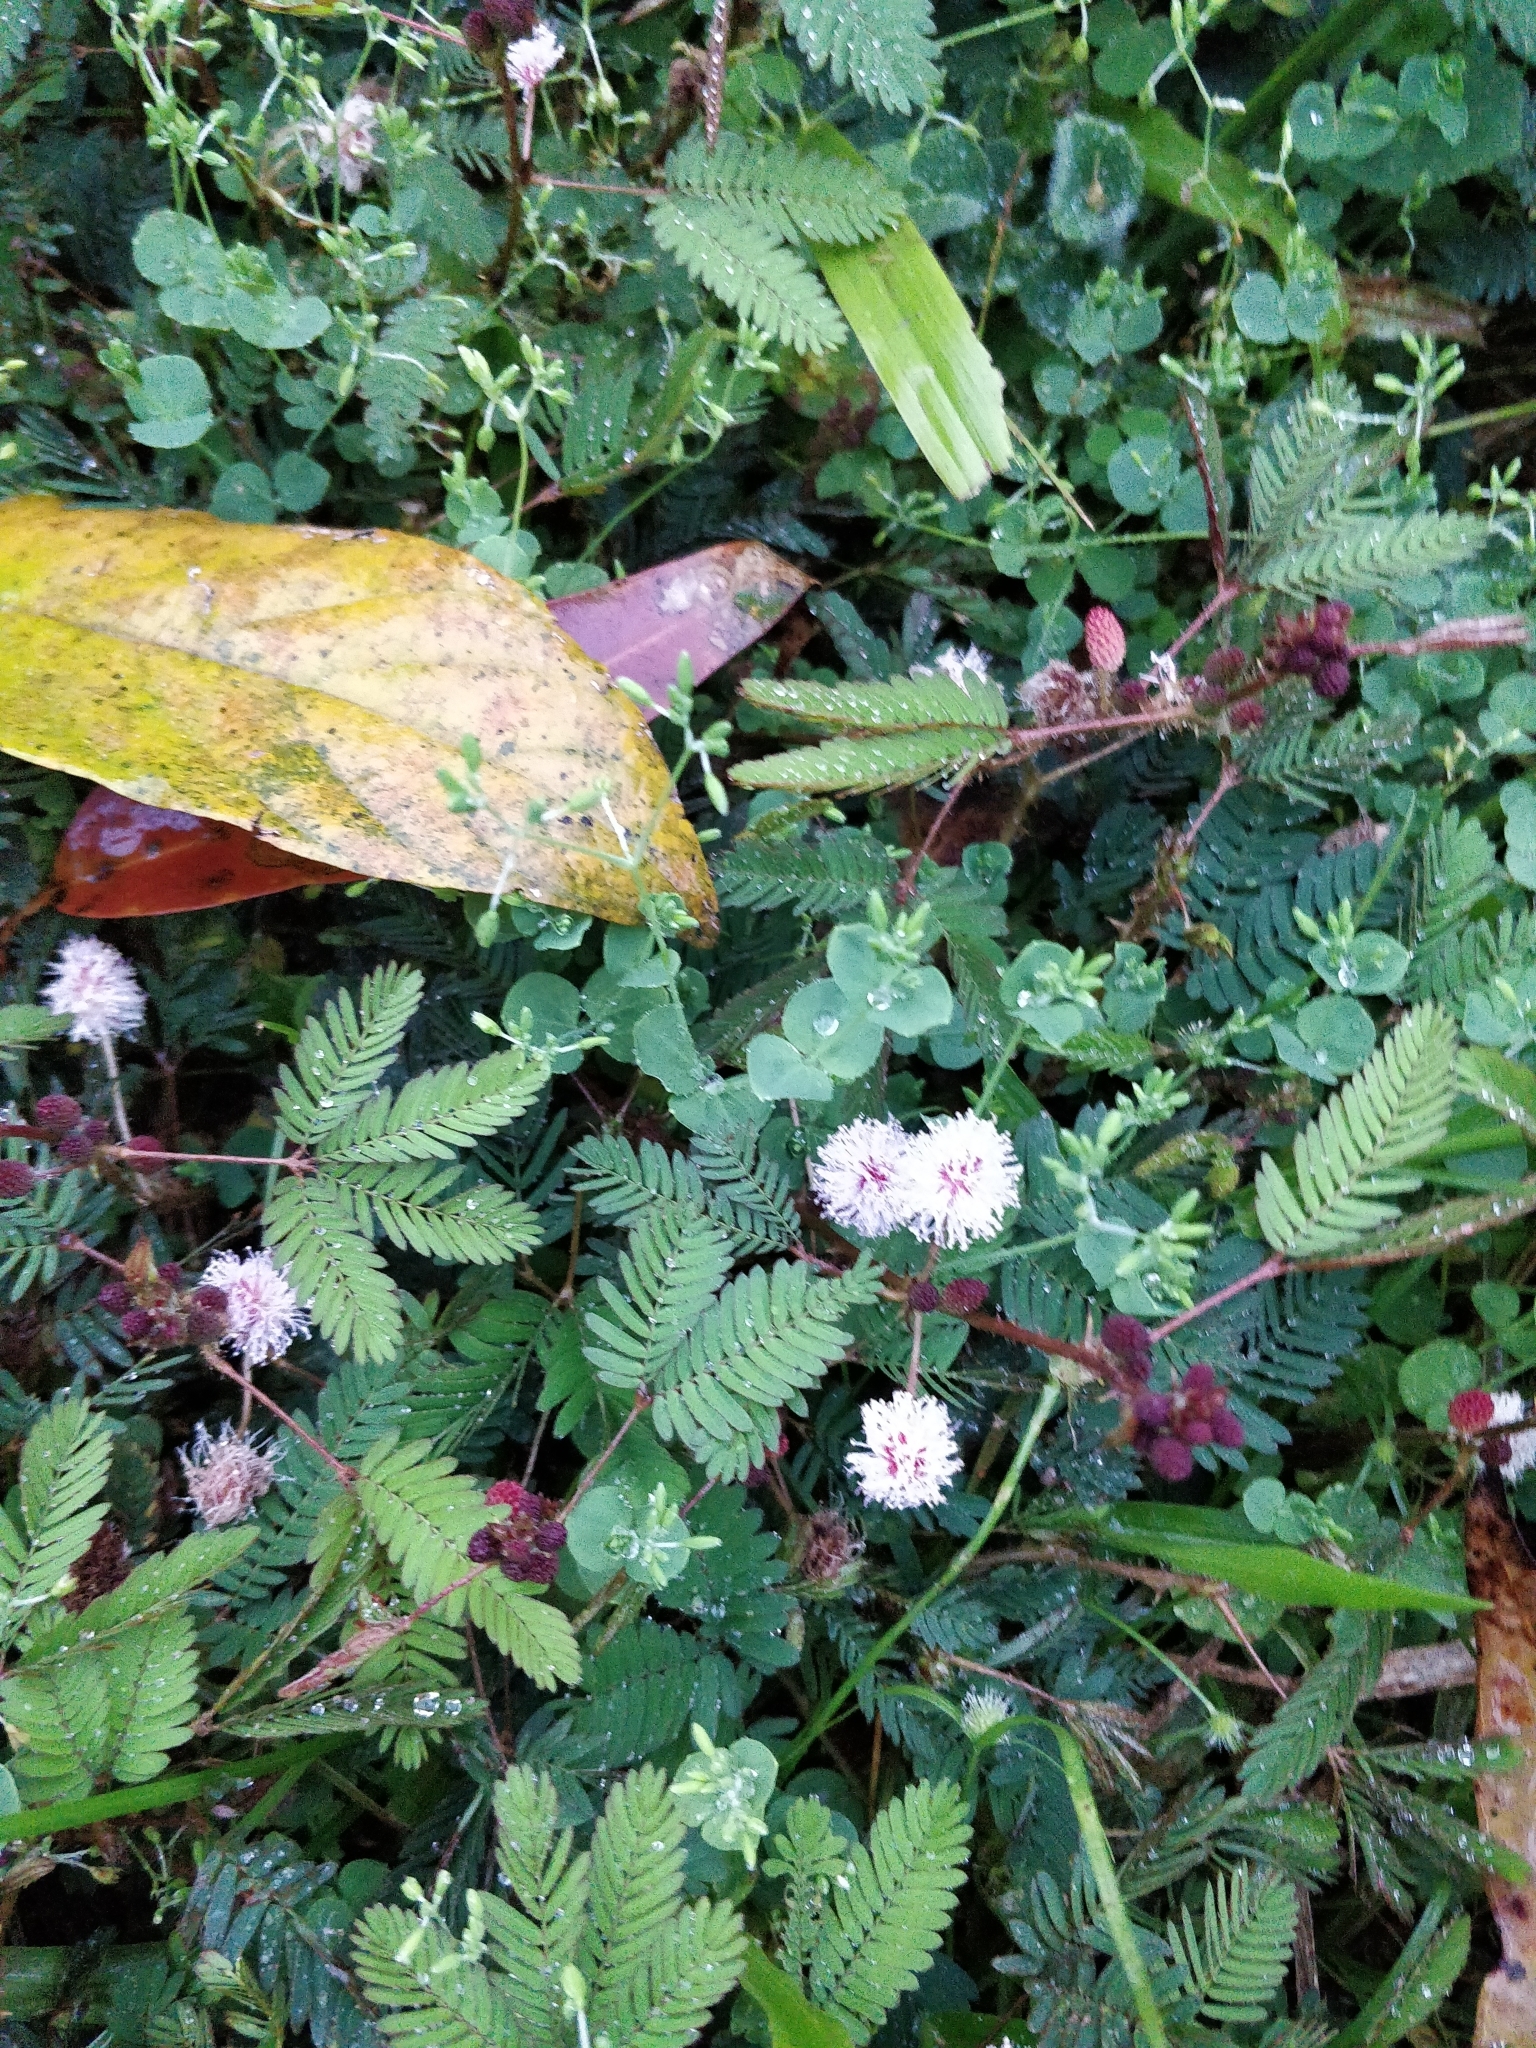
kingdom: Plantae
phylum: Tracheophyta
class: Magnoliopsida
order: Fabales
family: Fabaceae
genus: Mimosa
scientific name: Mimosa pudica
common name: Sensitive plant
